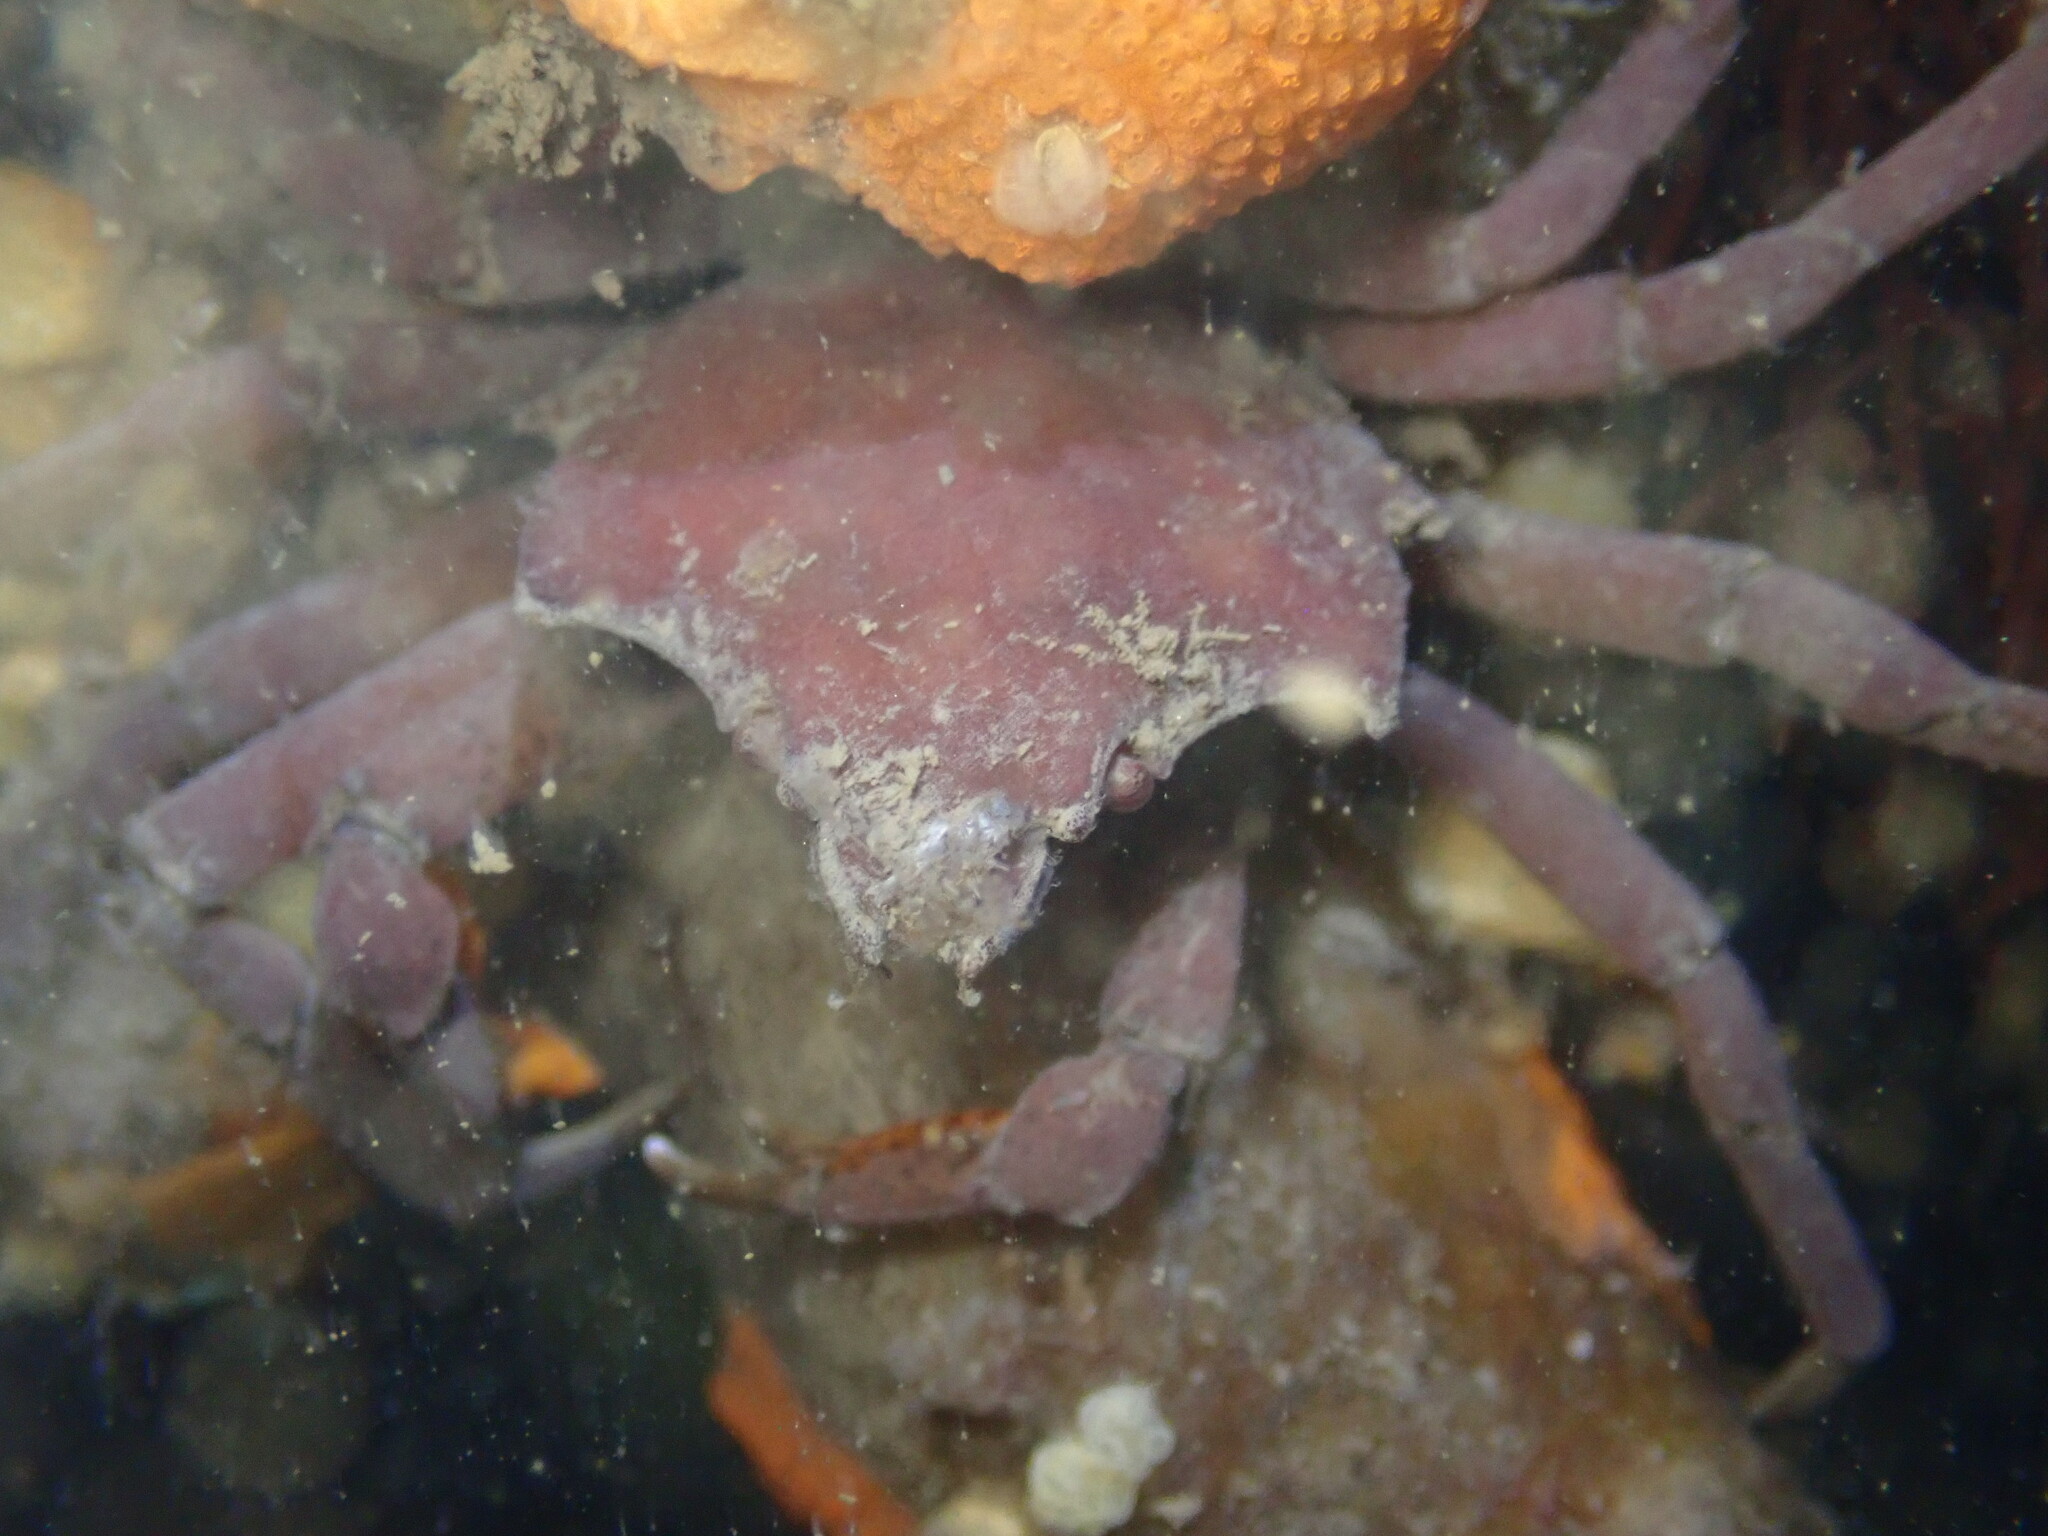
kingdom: Animalia
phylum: Arthropoda
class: Malacostraca
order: Decapoda
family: Epialtidae
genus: Pugettia
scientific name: Pugettia producta
